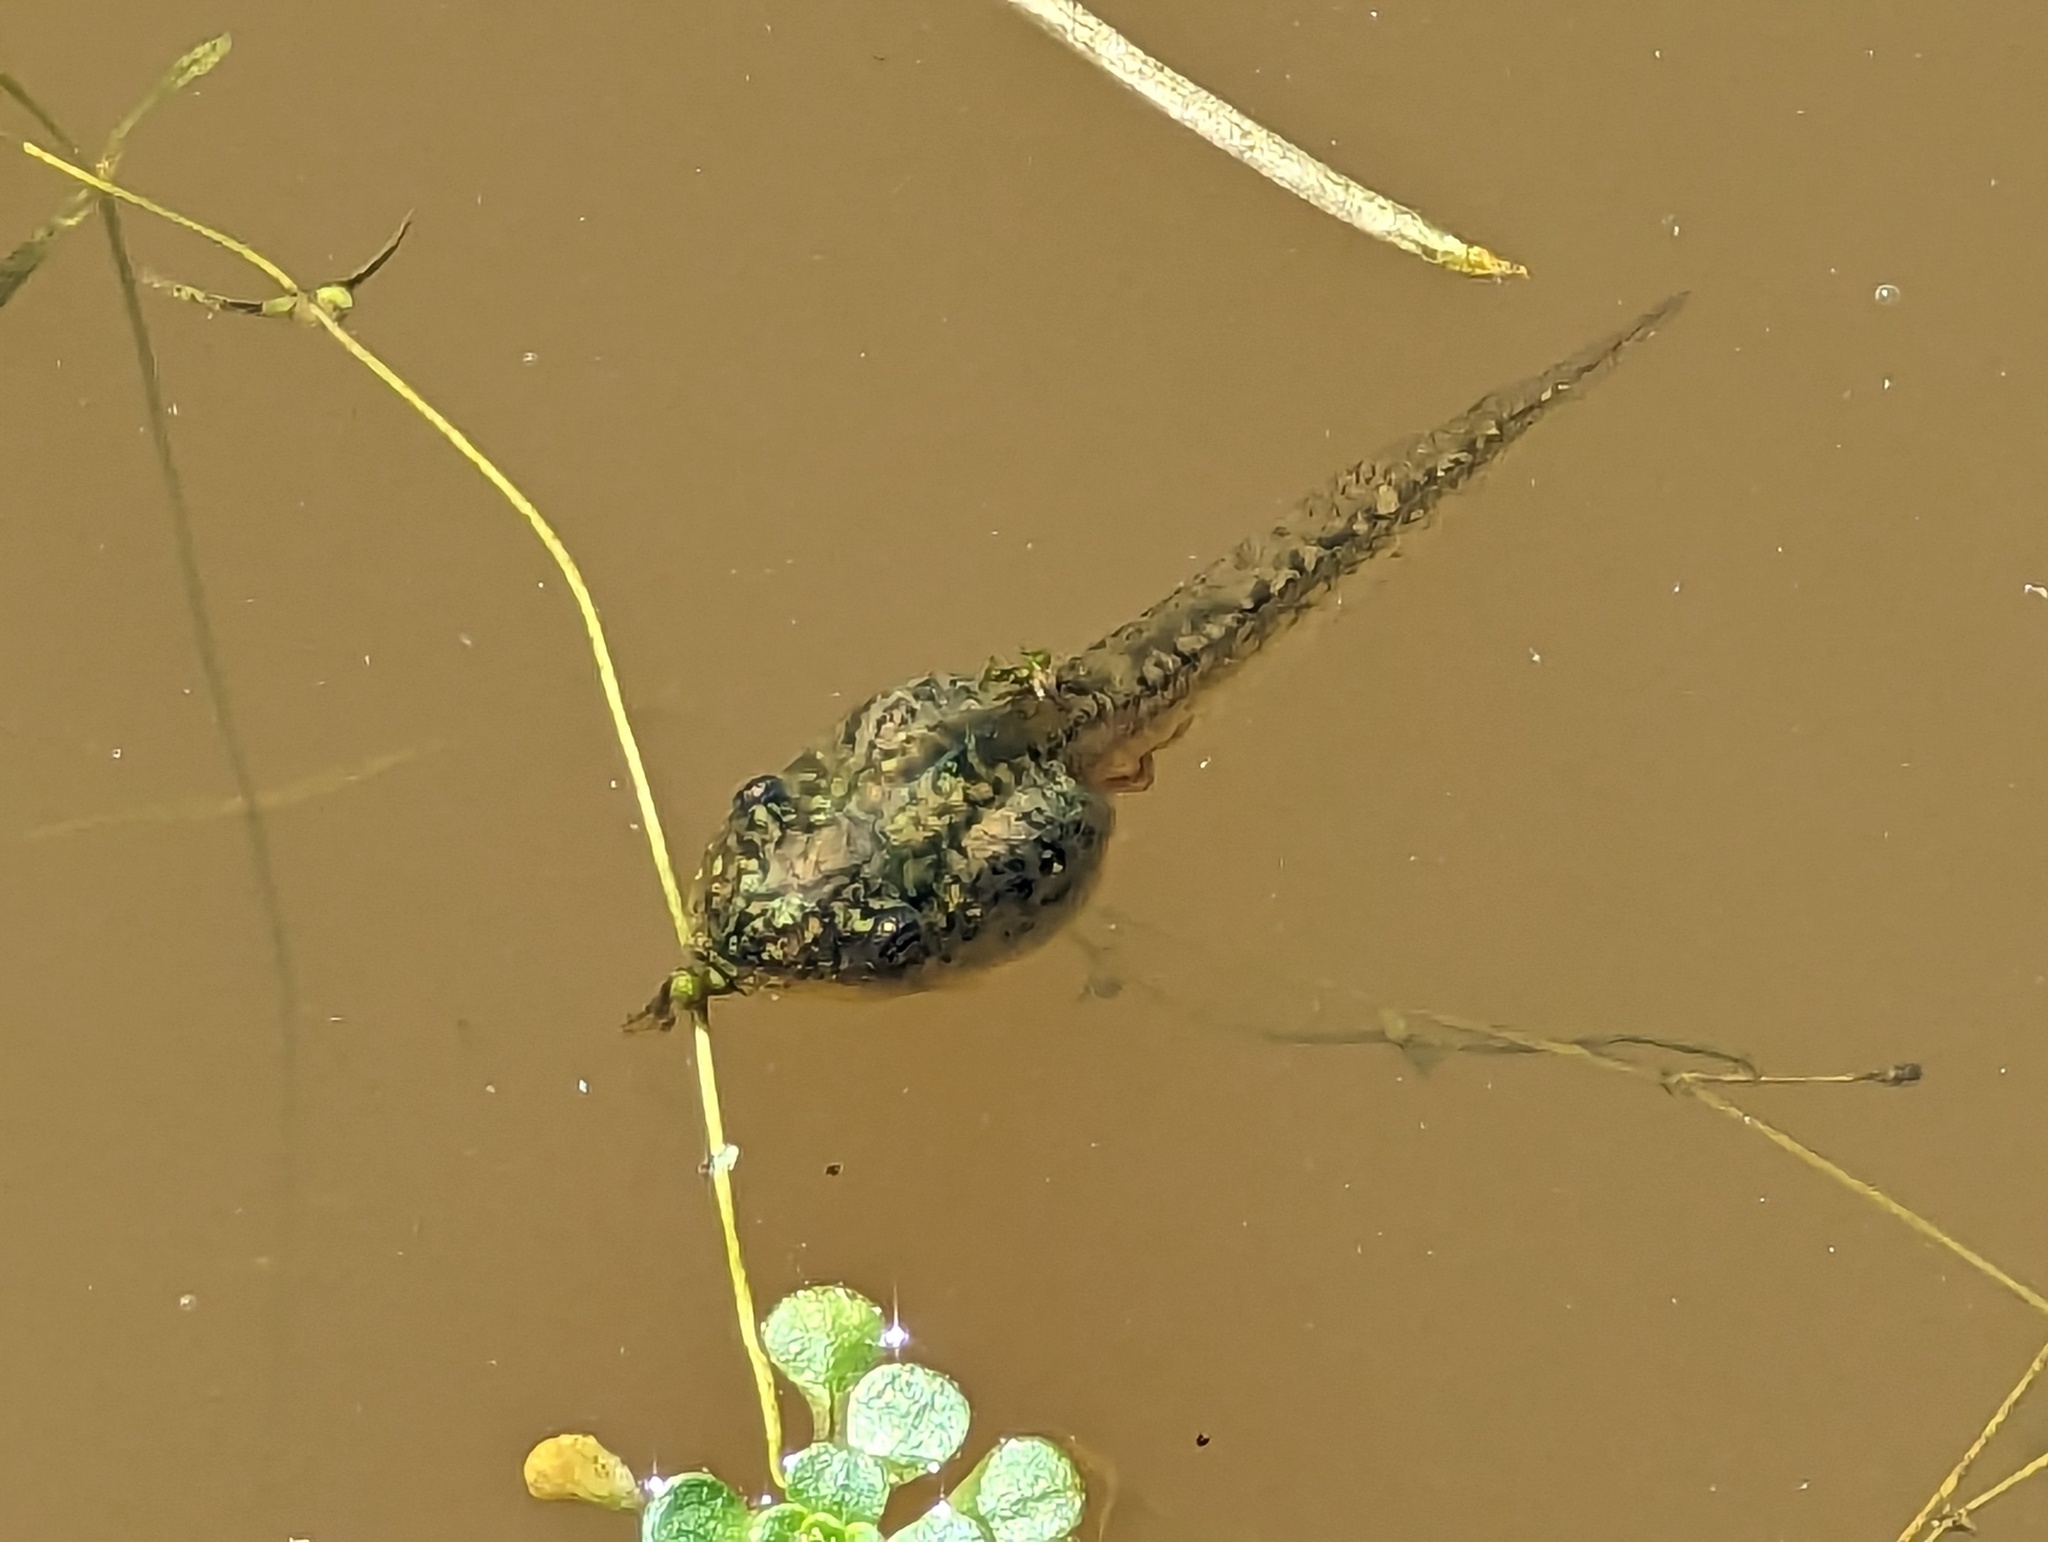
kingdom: Animalia
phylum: Chordata
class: Amphibia
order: Anura
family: Hylidae
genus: Pseudacris
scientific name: Pseudacris regilla
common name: Pacific chorus frog
